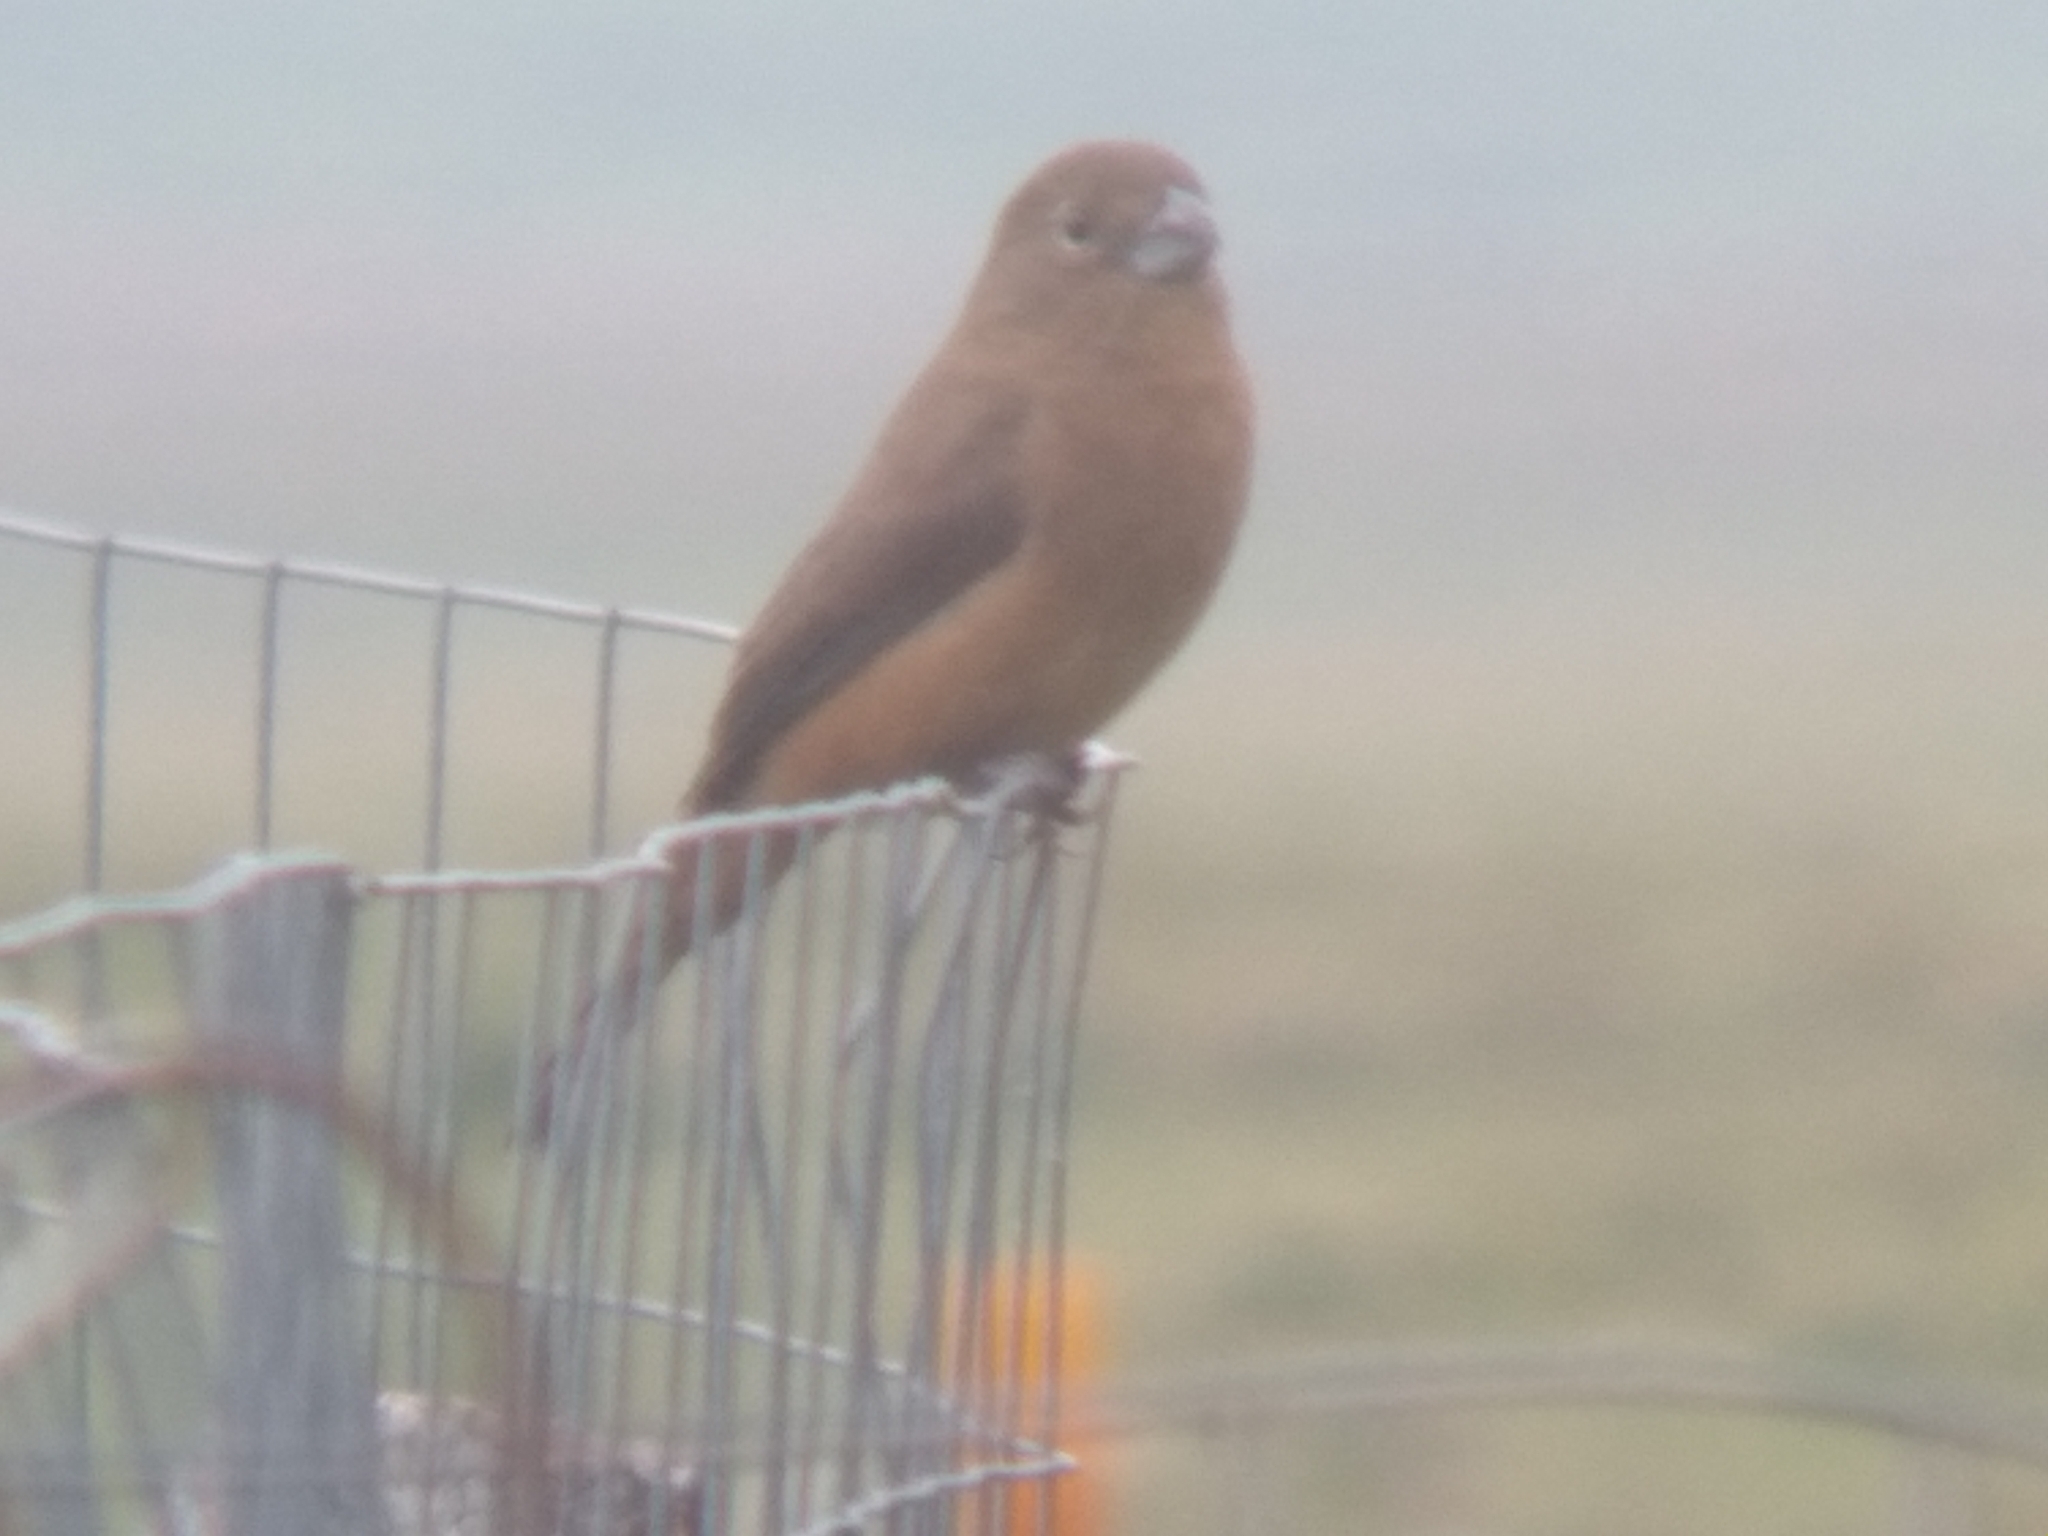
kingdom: Animalia
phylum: Chordata
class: Aves
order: Passeriformes
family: Cardinalidae
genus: Cyanoloxia
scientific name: Cyanoloxia glaucocaerulea
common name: Glaucous-blue grosbeak
